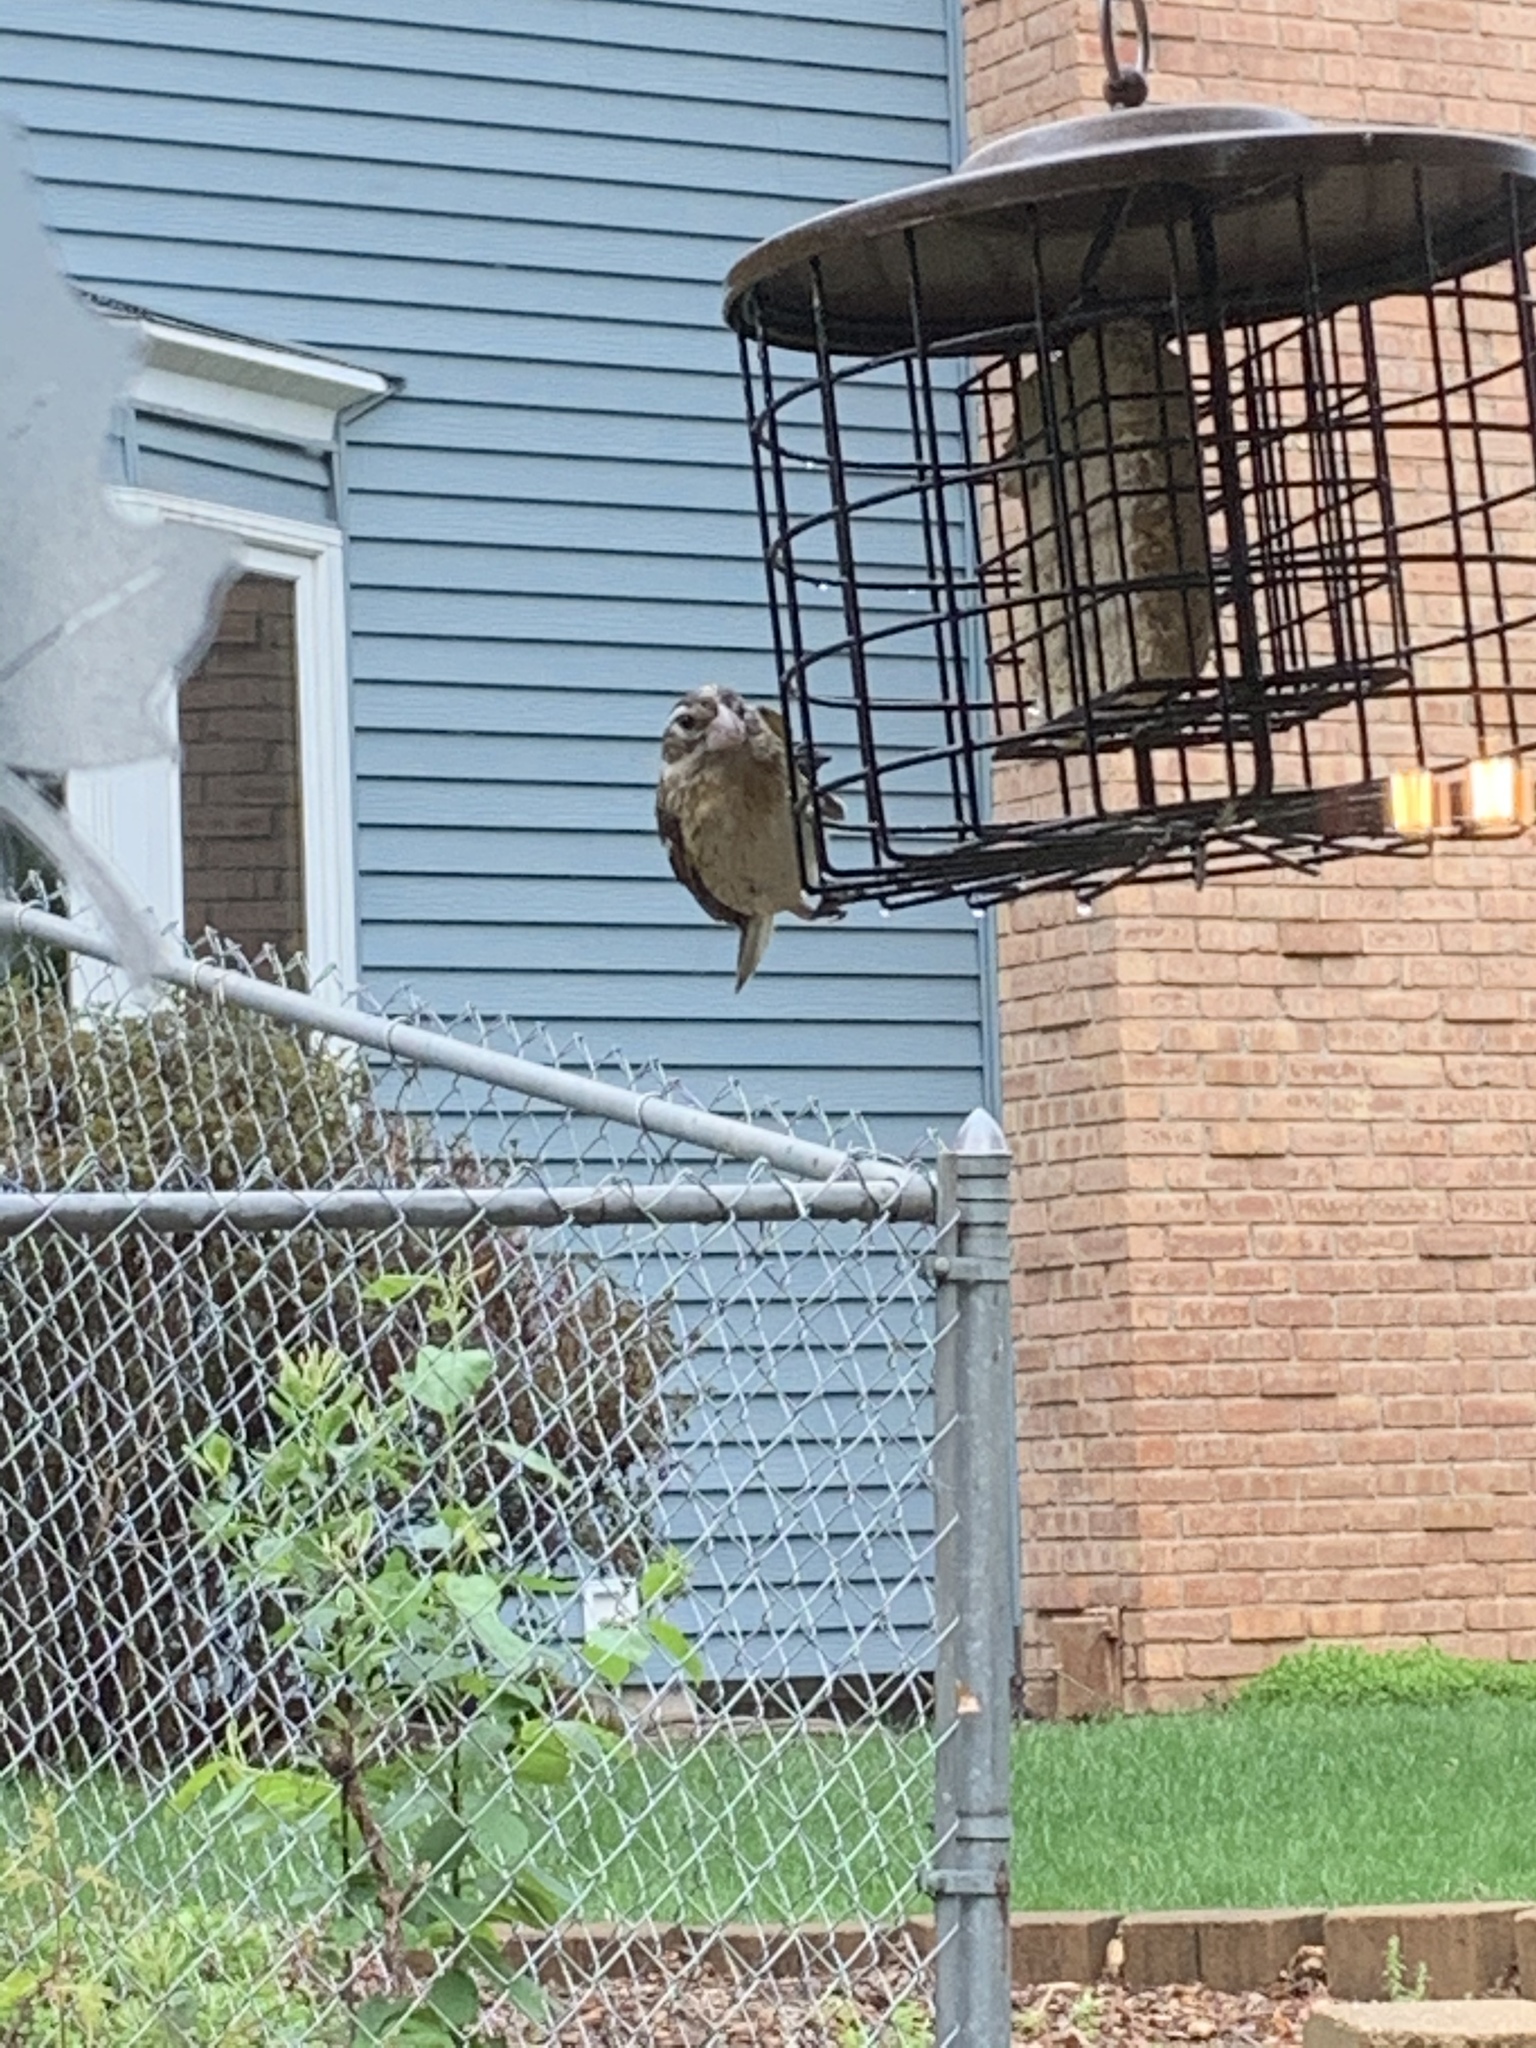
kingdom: Animalia
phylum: Chordata
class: Aves
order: Passeriformes
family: Cardinalidae
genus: Pheucticus
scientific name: Pheucticus ludovicianus
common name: Rose-breasted grosbeak
